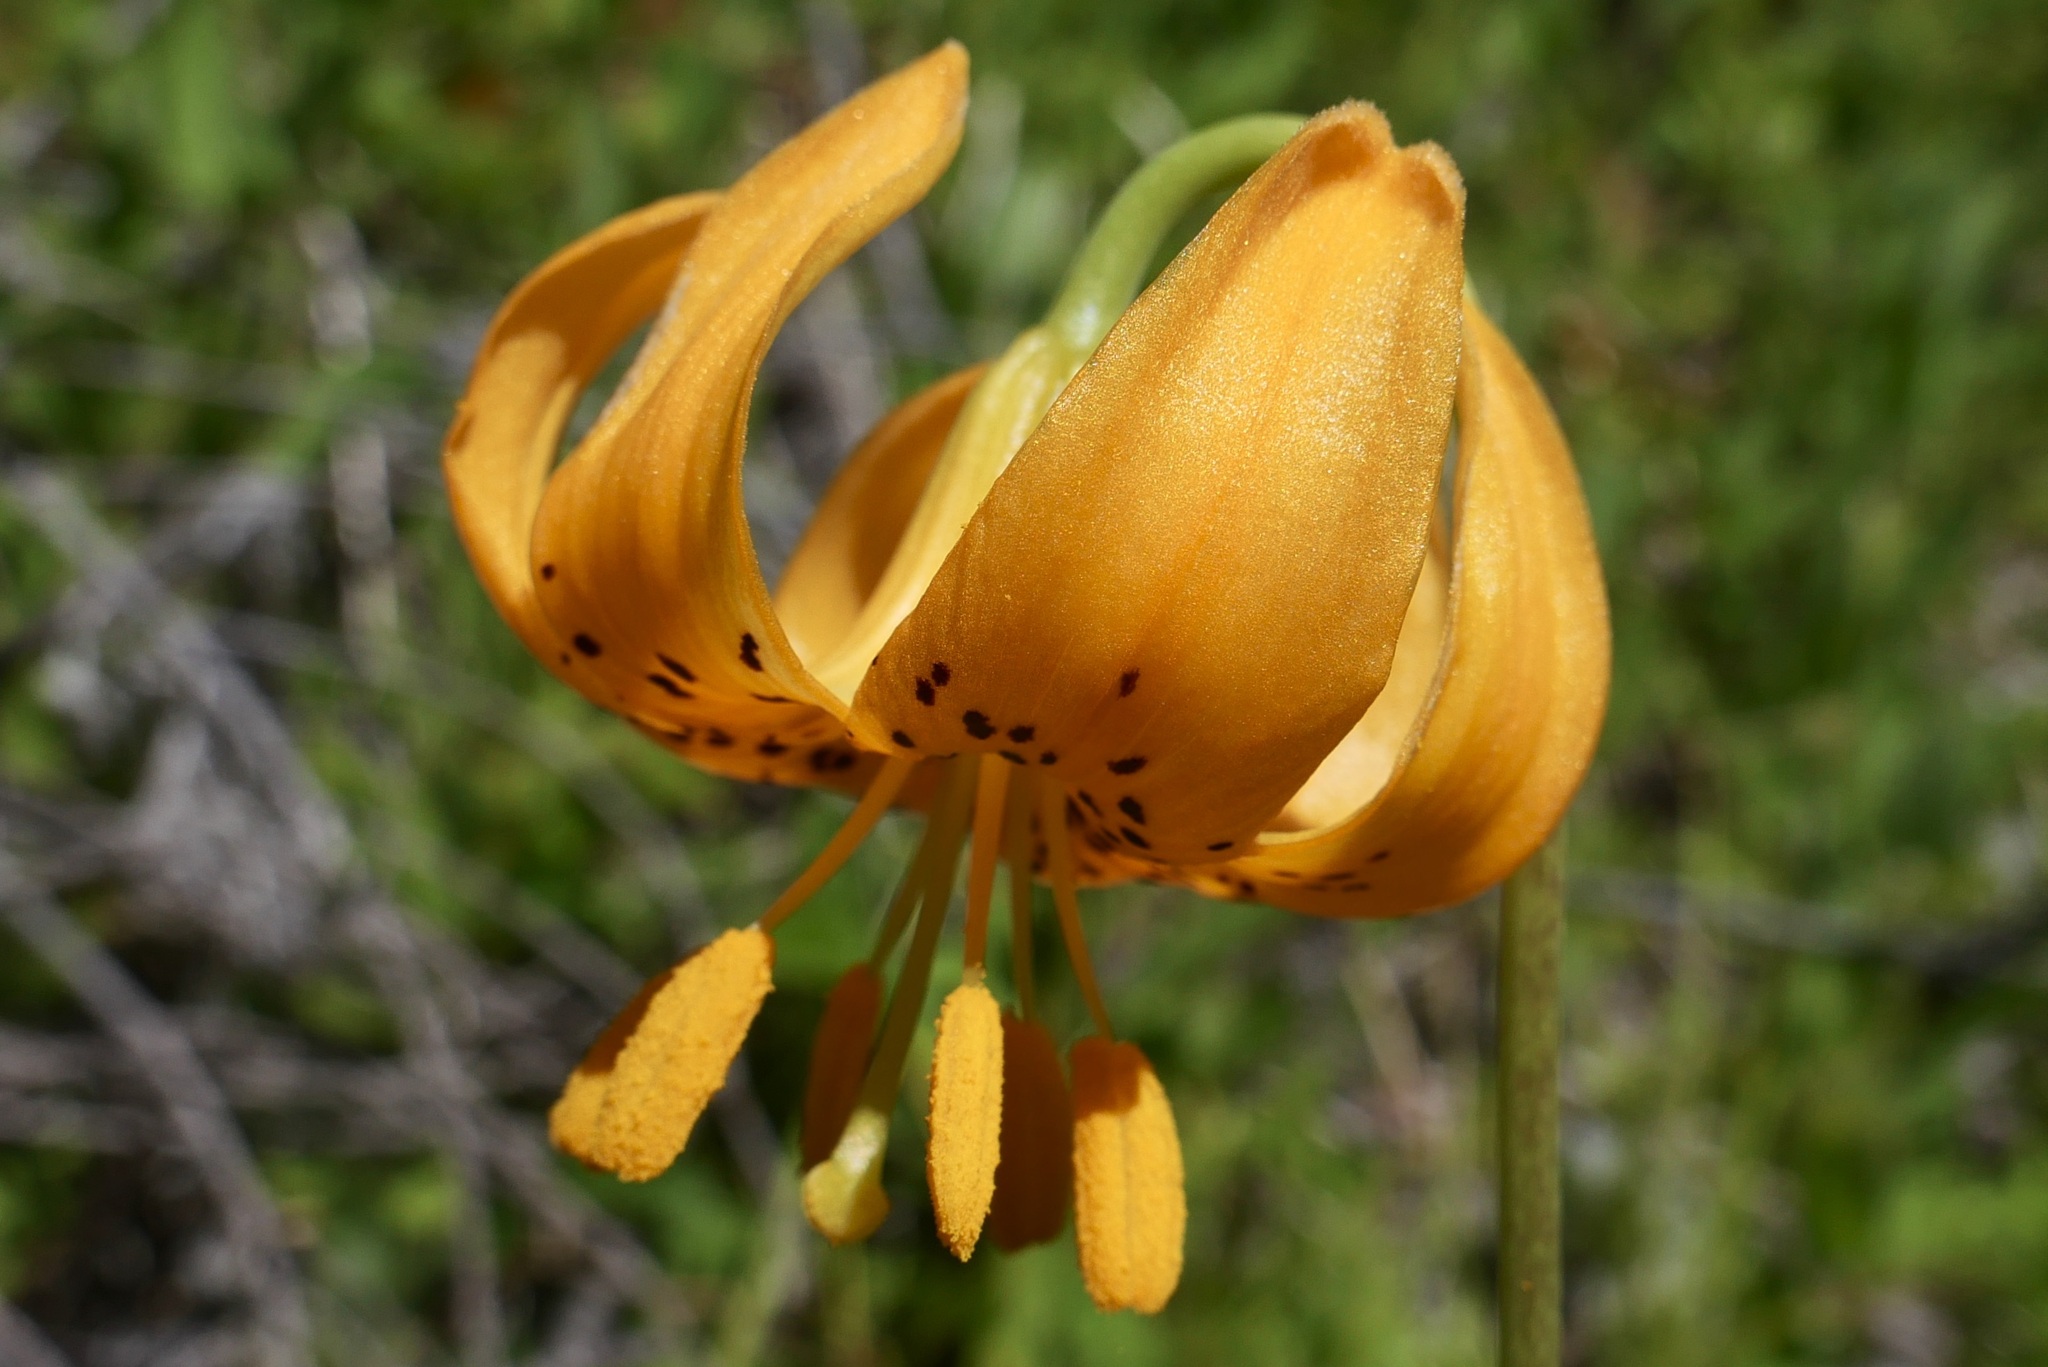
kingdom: Plantae
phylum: Tracheophyta
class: Liliopsida
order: Liliales
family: Liliaceae
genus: Lilium
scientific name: Lilium pardalinum
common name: Panther lily
